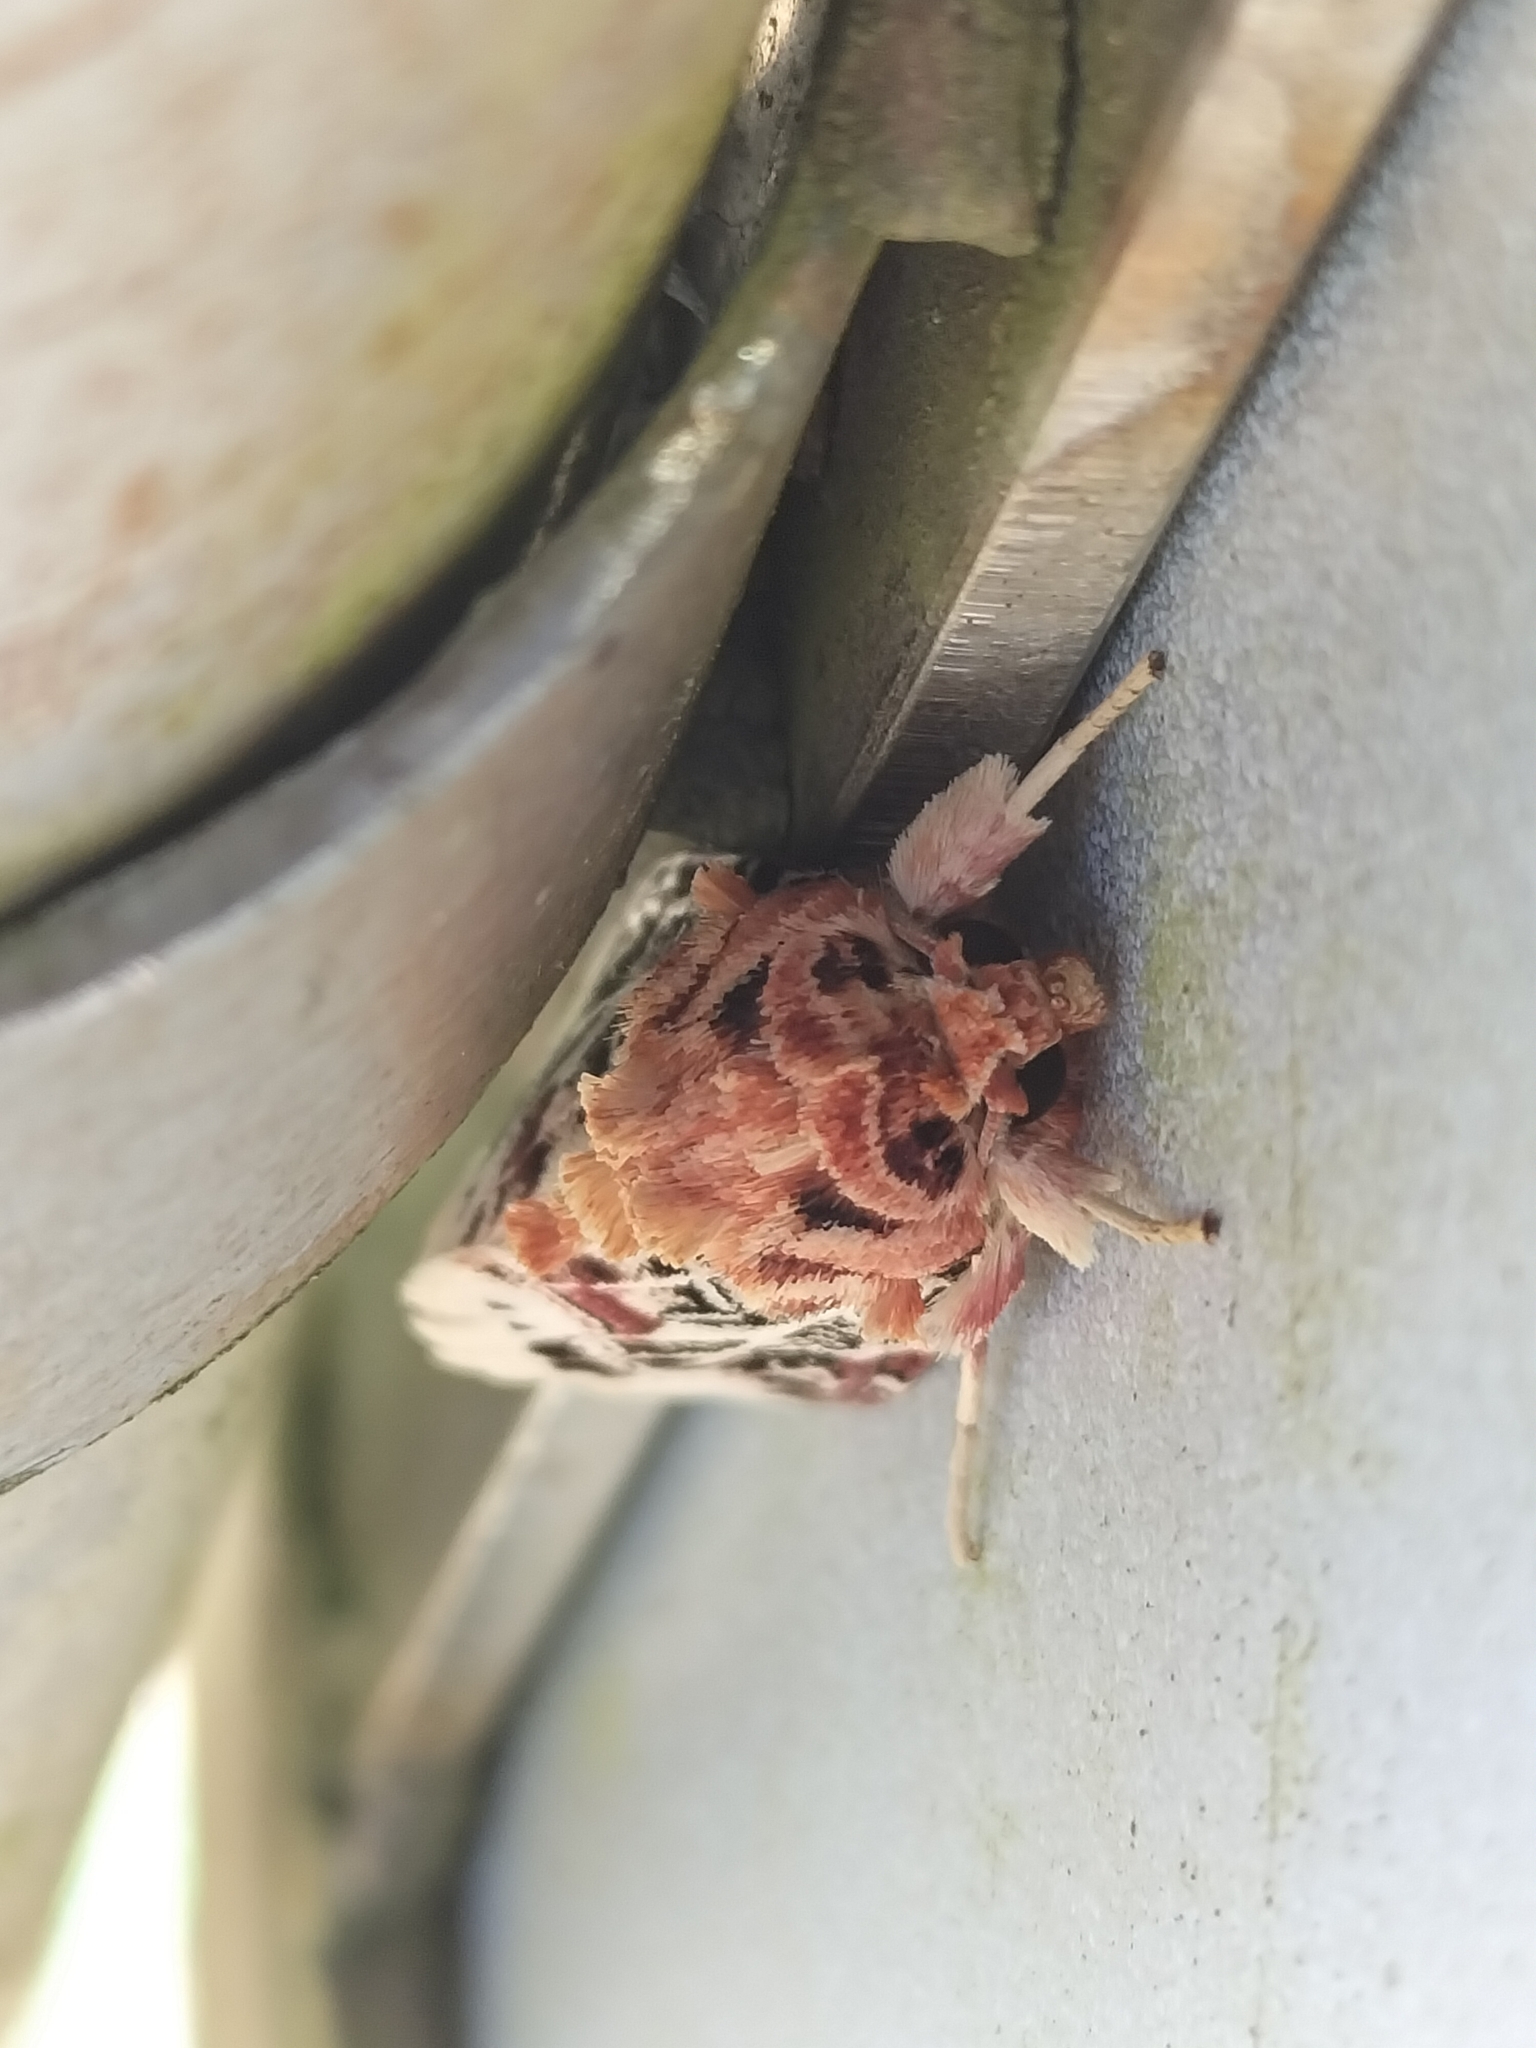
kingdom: Animalia
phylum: Arthropoda
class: Insecta
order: Lepidoptera
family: Noctuidae
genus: Spodoptera
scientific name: Spodoptera picta
